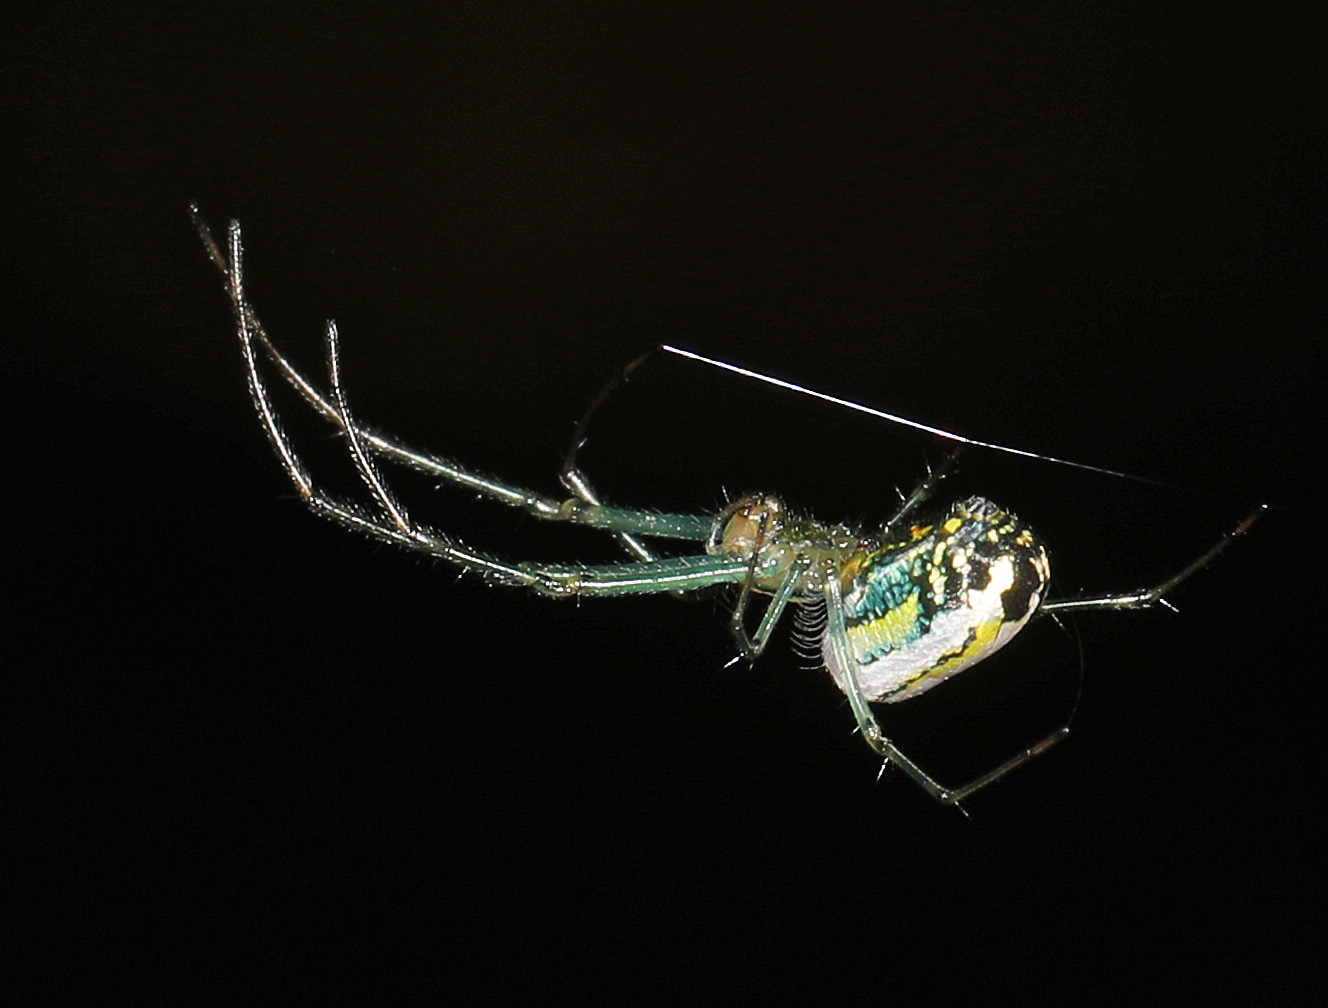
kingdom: Animalia
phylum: Arthropoda
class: Arachnida
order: Araneae
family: Tetragnathidae
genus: Leucauge
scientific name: Leucauge venusta
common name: Longjawed orb weavers
